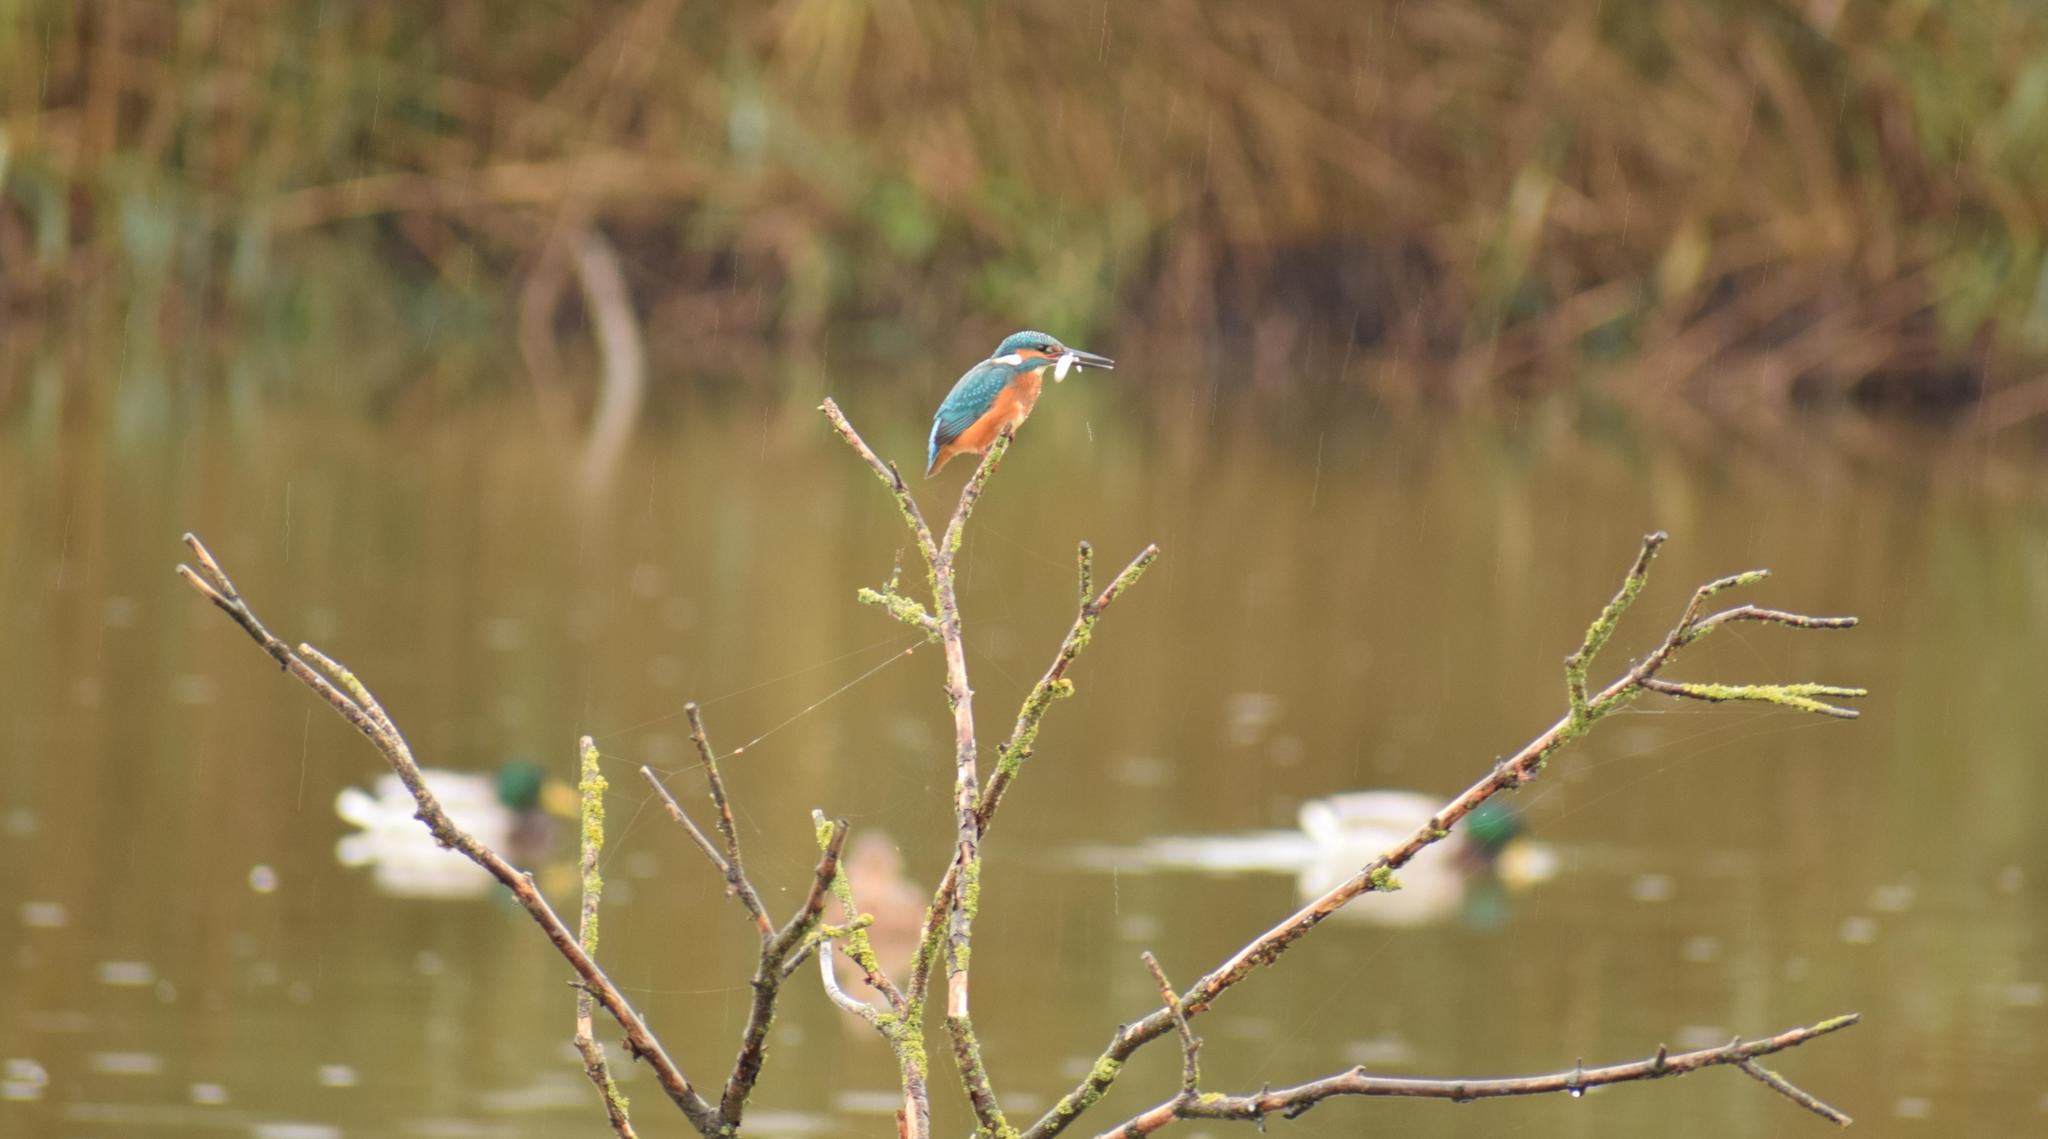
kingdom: Animalia
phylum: Chordata
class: Aves
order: Coraciiformes
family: Alcedinidae
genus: Alcedo
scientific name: Alcedo atthis
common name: Common kingfisher
